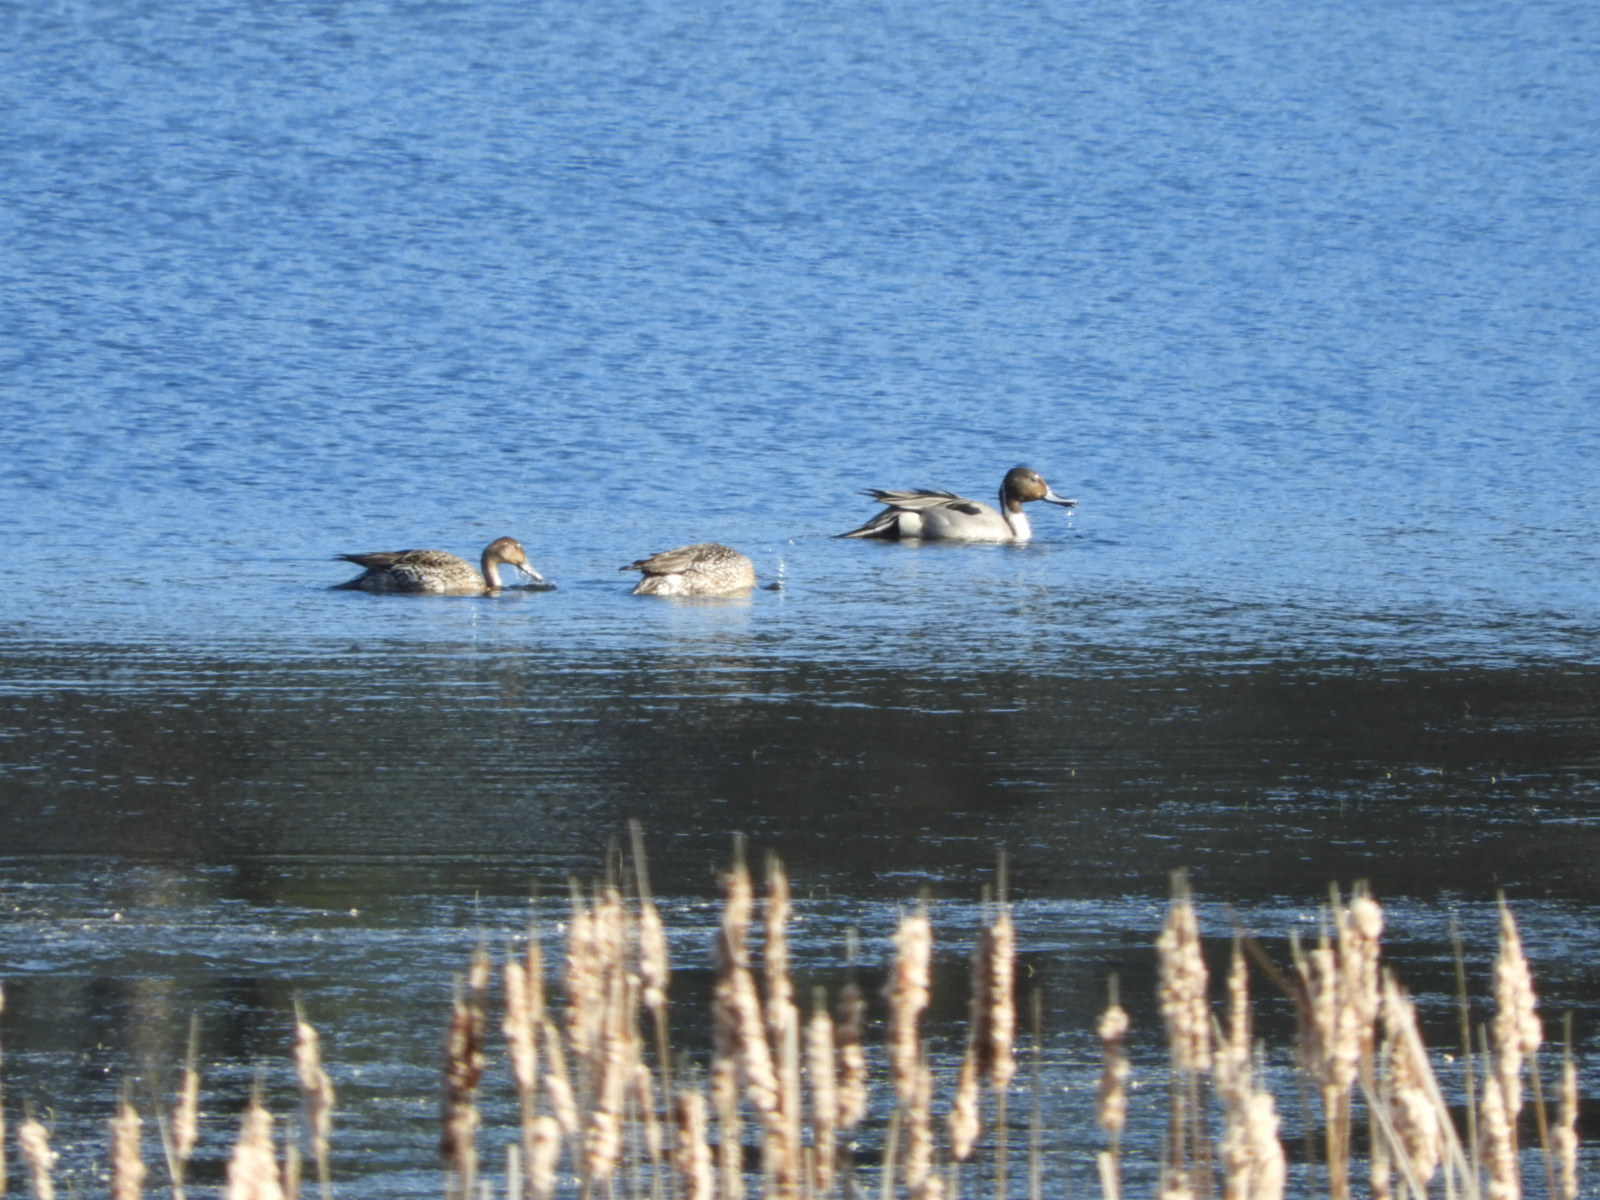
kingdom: Animalia
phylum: Chordata
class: Aves
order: Anseriformes
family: Anatidae
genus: Anas
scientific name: Anas acuta
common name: Northern pintail
